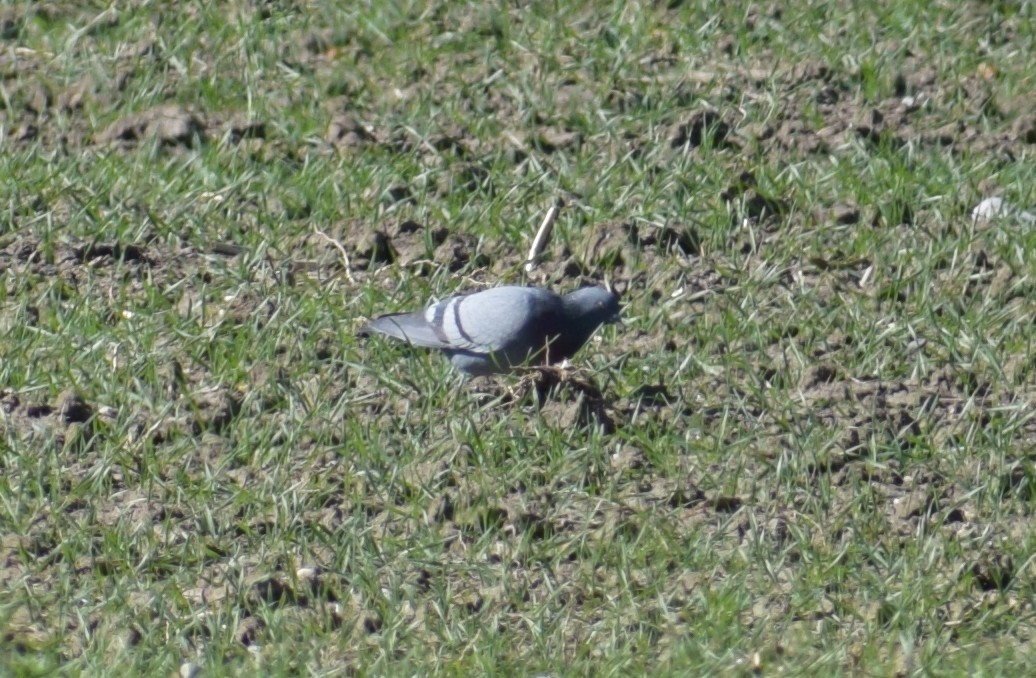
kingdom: Animalia
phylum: Chordata
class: Aves
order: Columbiformes
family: Columbidae
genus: Columba
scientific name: Columba livia
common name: Rock pigeon
